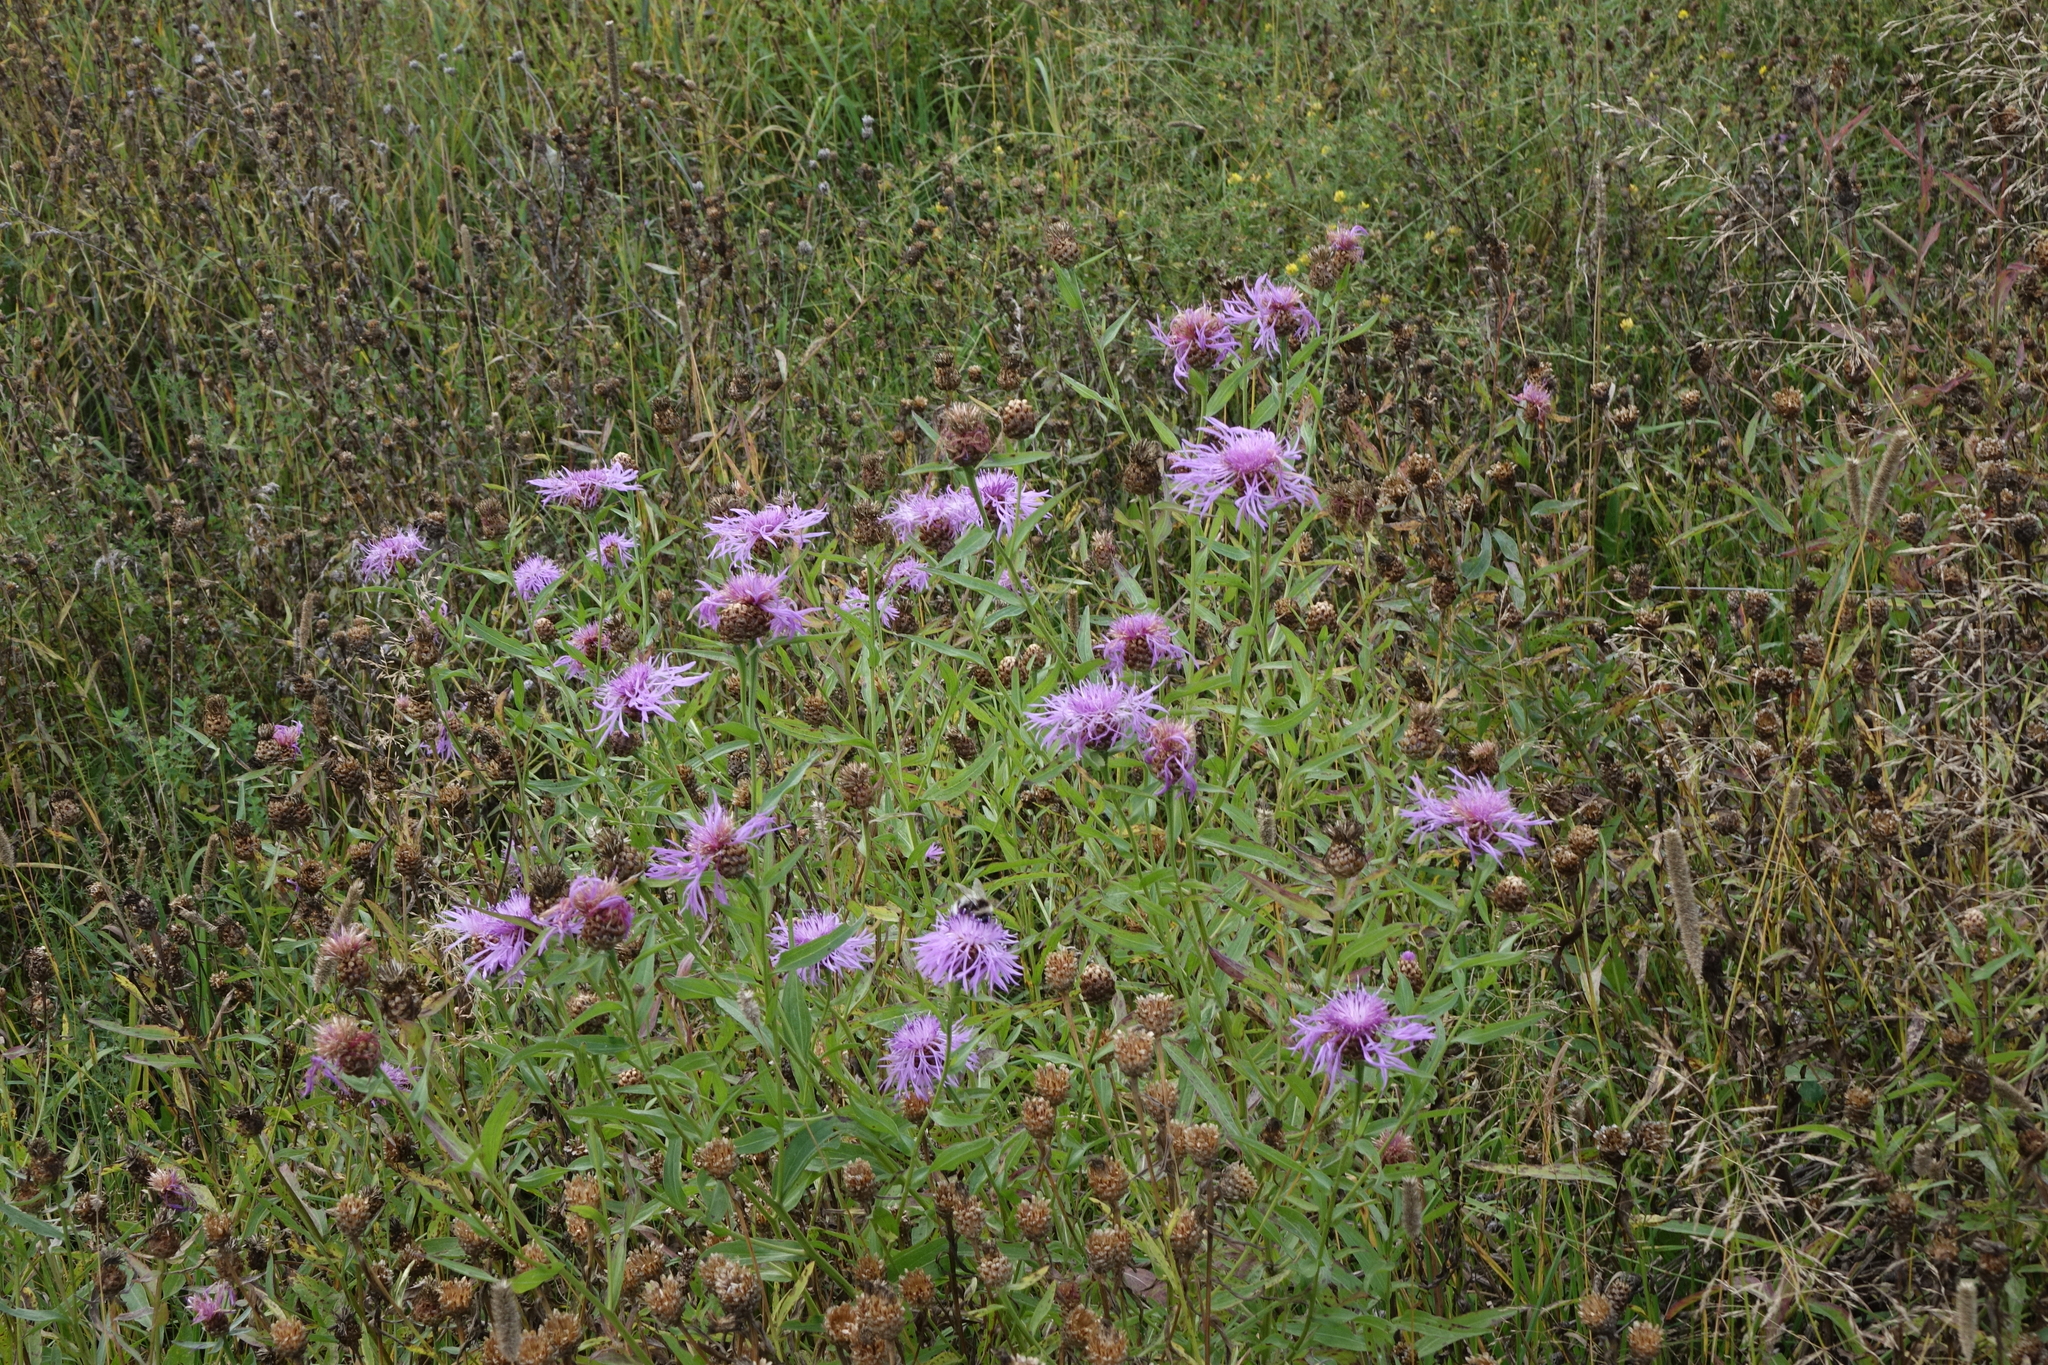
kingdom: Plantae
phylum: Tracheophyta
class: Magnoliopsida
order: Asterales
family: Asteraceae
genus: Centaurea
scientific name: Centaurea jacea
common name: Brown knapweed
